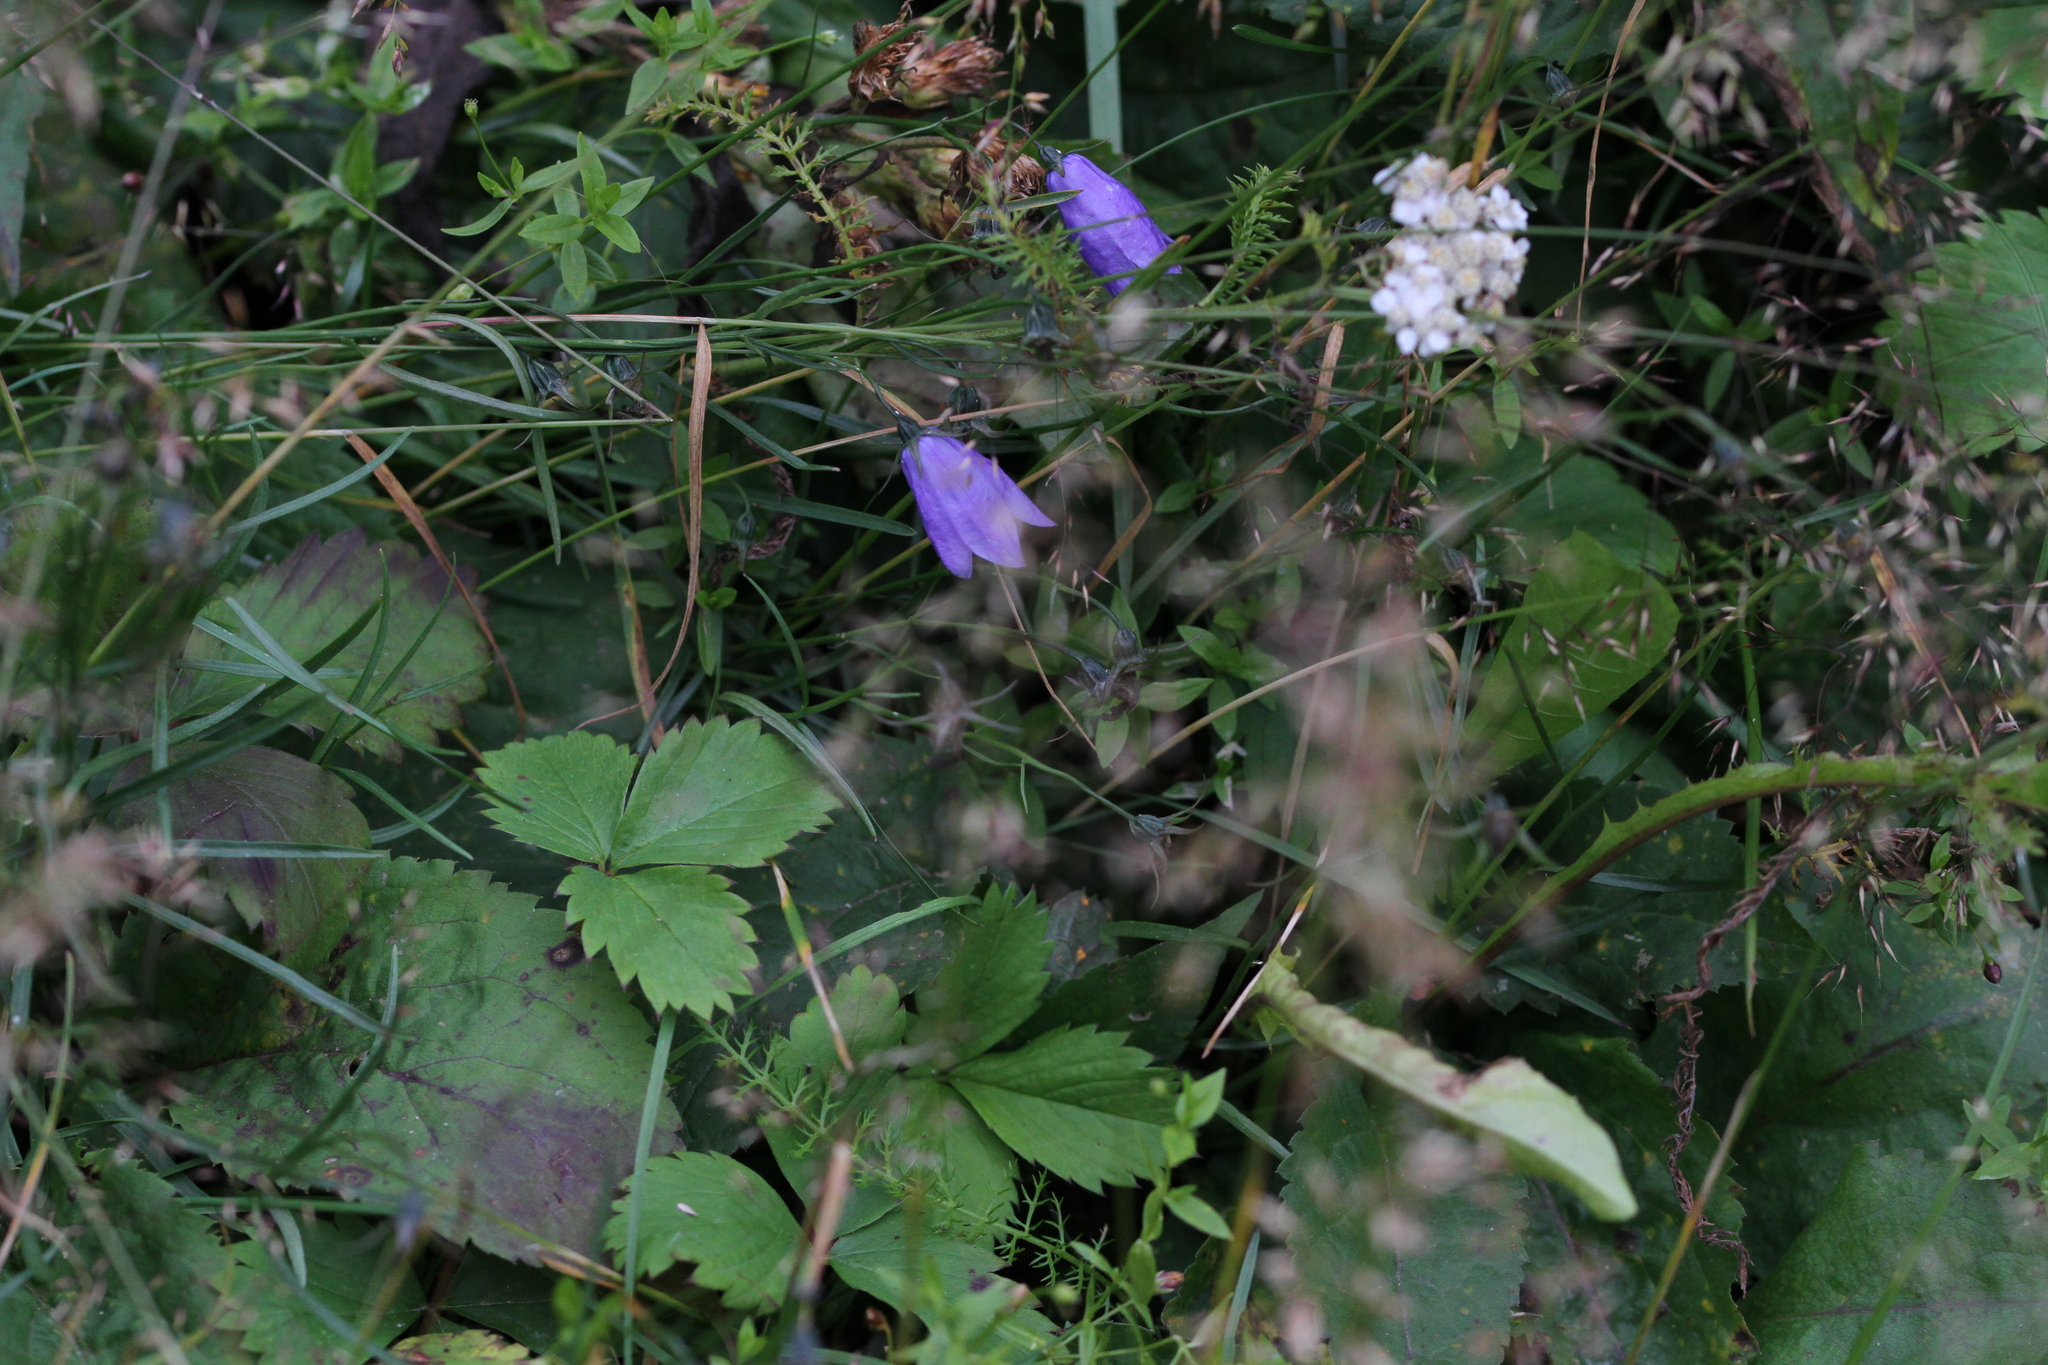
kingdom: Plantae
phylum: Tracheophyta
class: Magnoliopsida
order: Asterales
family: Campanulaceae
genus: Campanula
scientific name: Campanula intercedens
